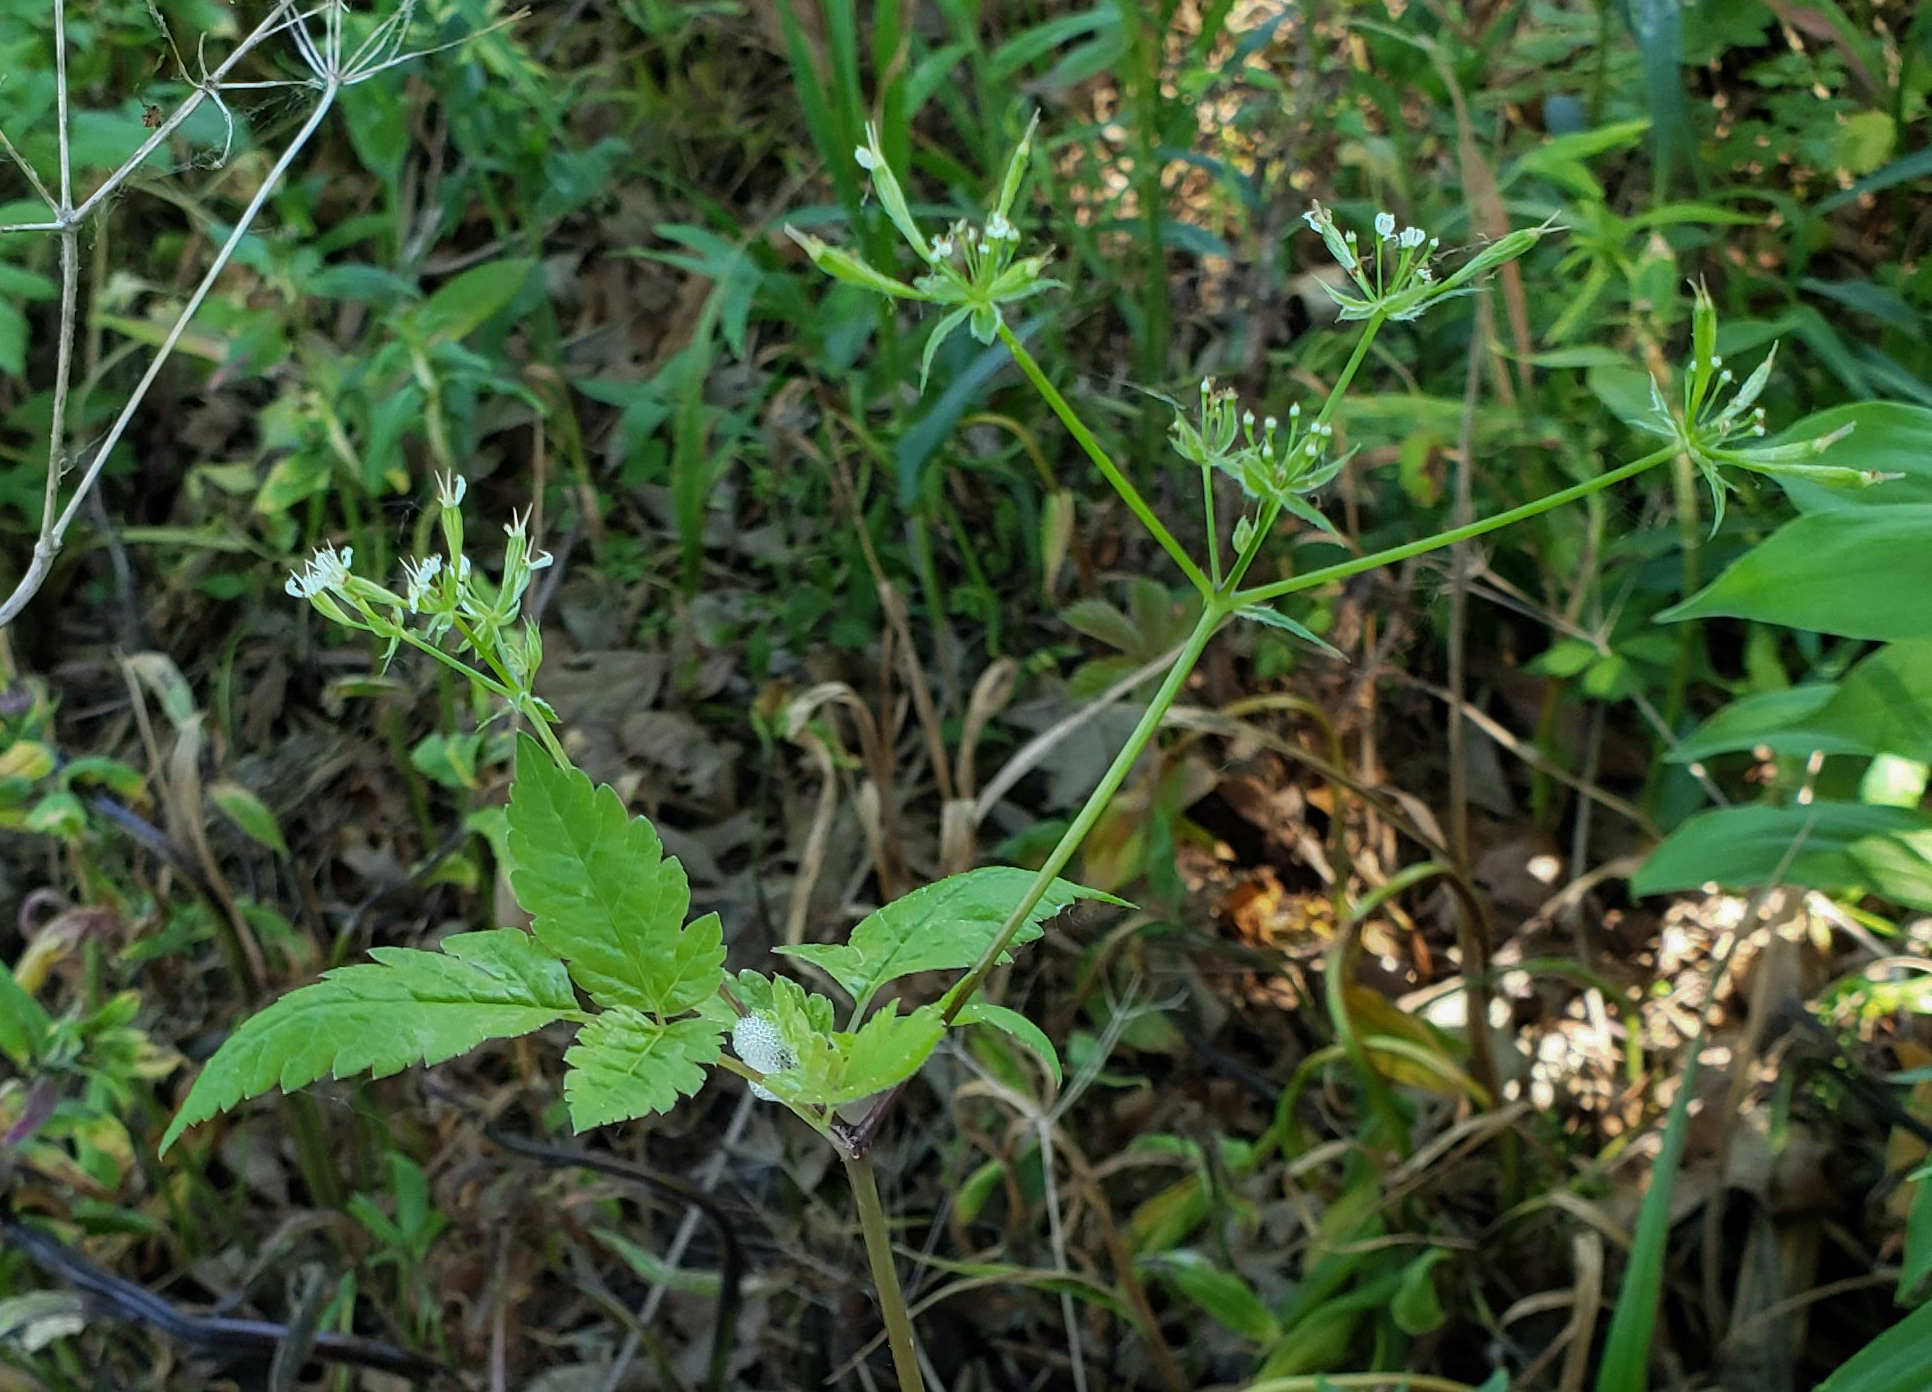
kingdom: Plantae
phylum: Tracheophyta
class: Magnoliopsida
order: Apiales
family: Apiaceae
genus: Osmorhiza
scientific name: Osmorhiza longistylis
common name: Smooth sweet cicely
